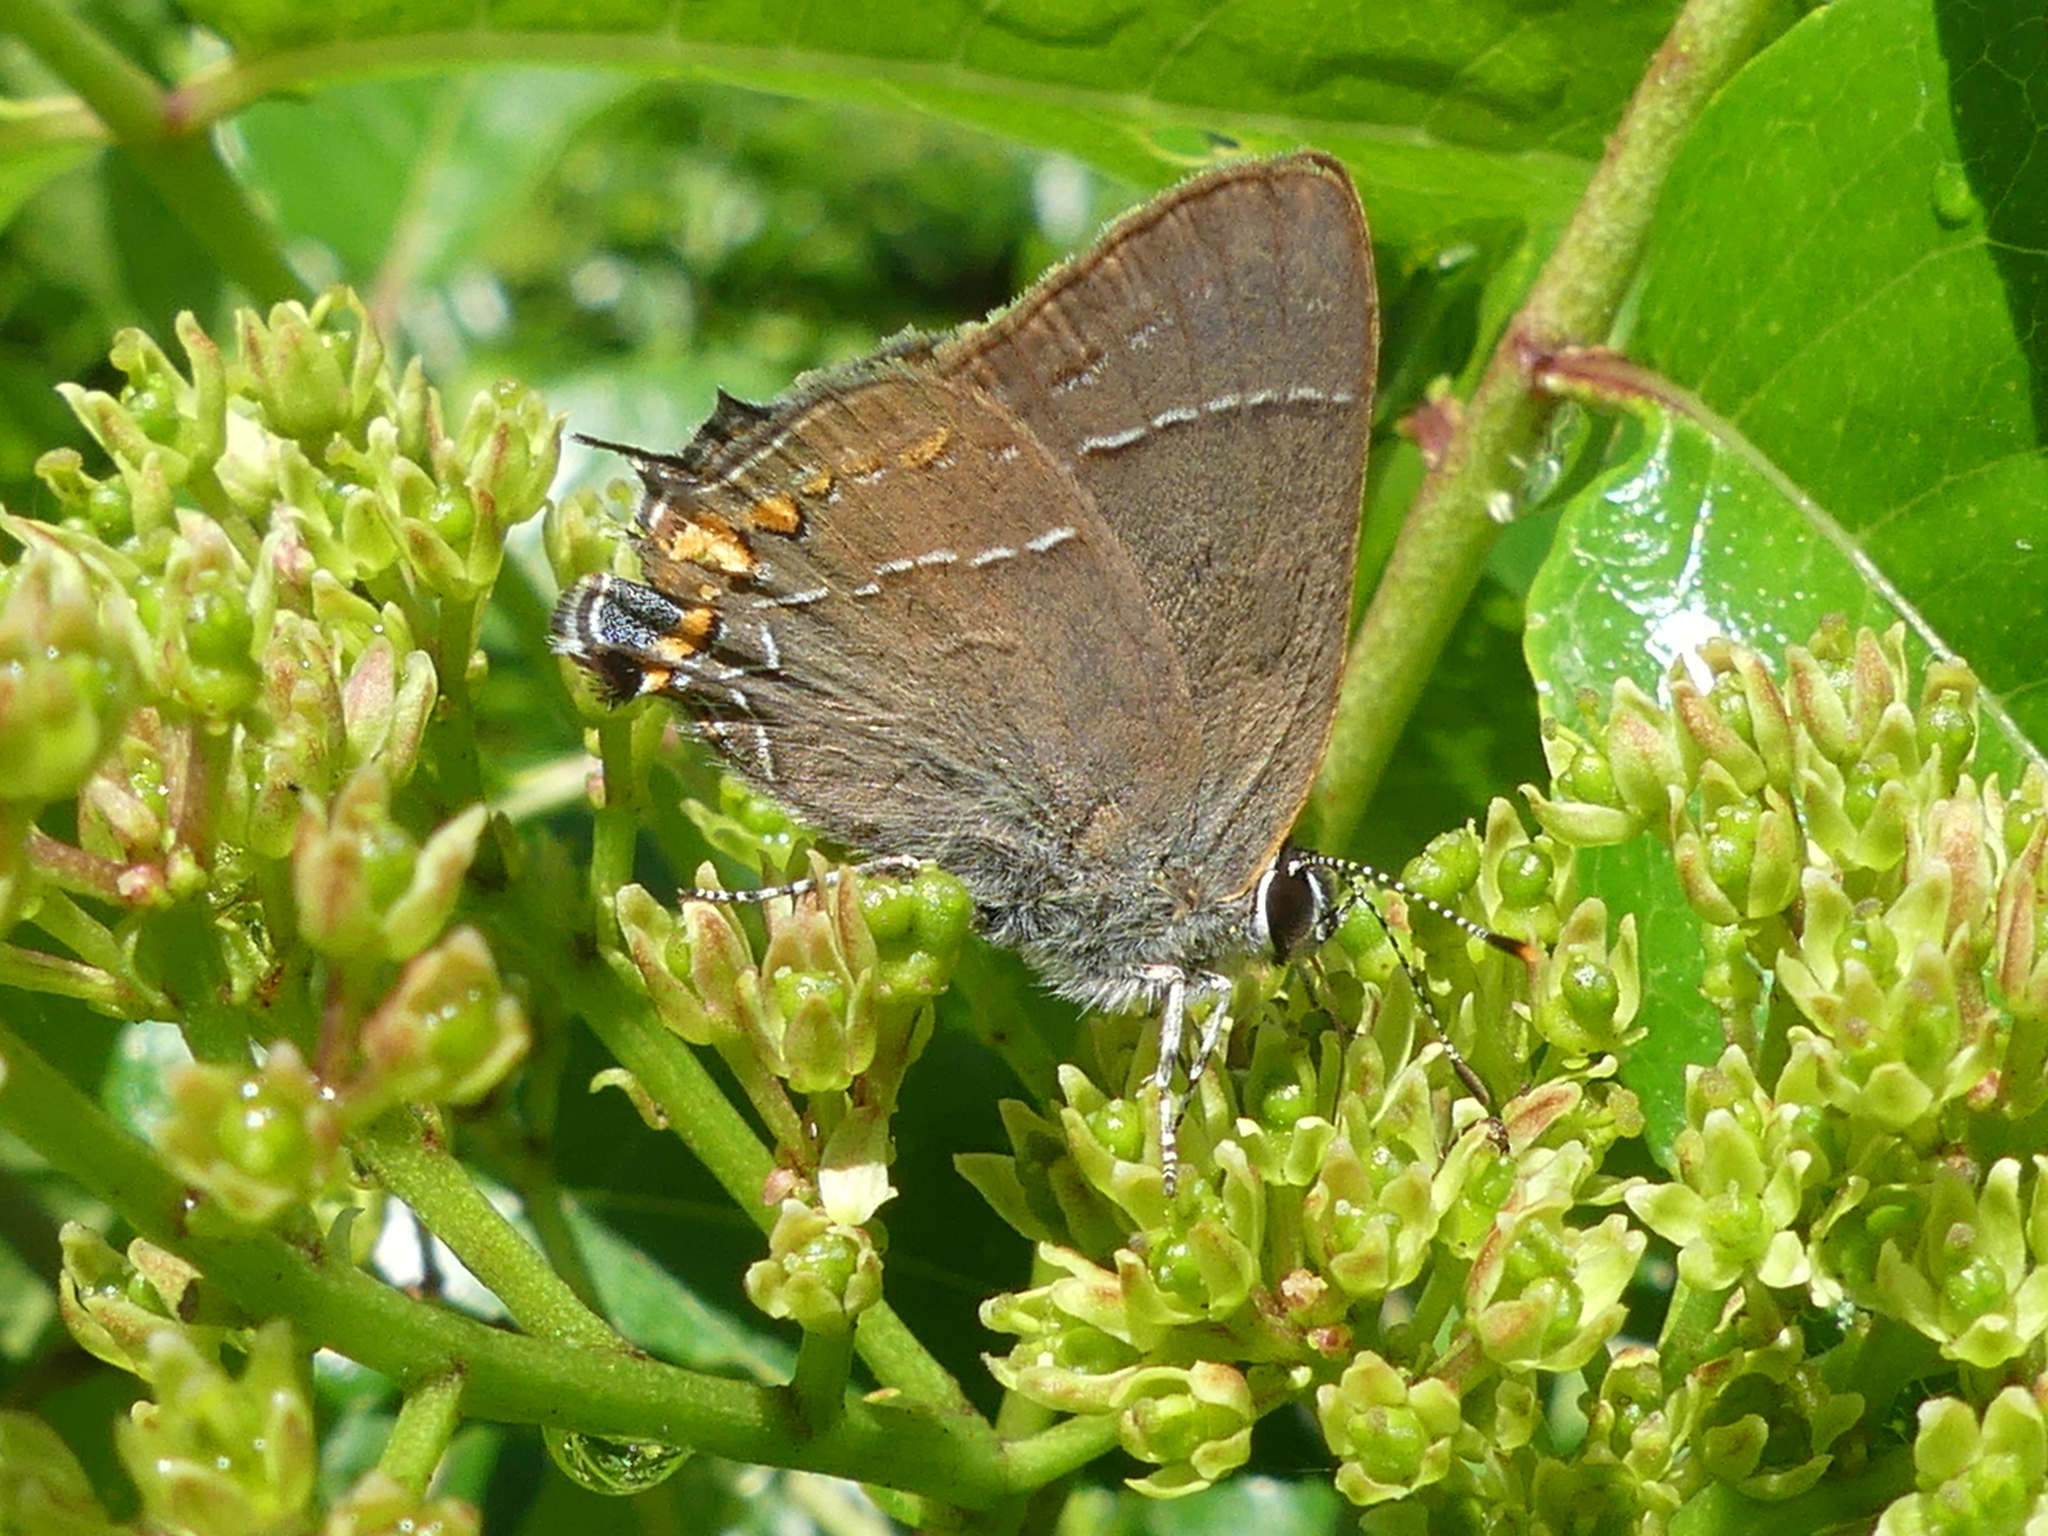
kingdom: Animalia
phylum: Arthropoda
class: Insecta
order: Lepidoptera
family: Lycaenidae
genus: Fixsenia
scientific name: Fixsenia favonius
